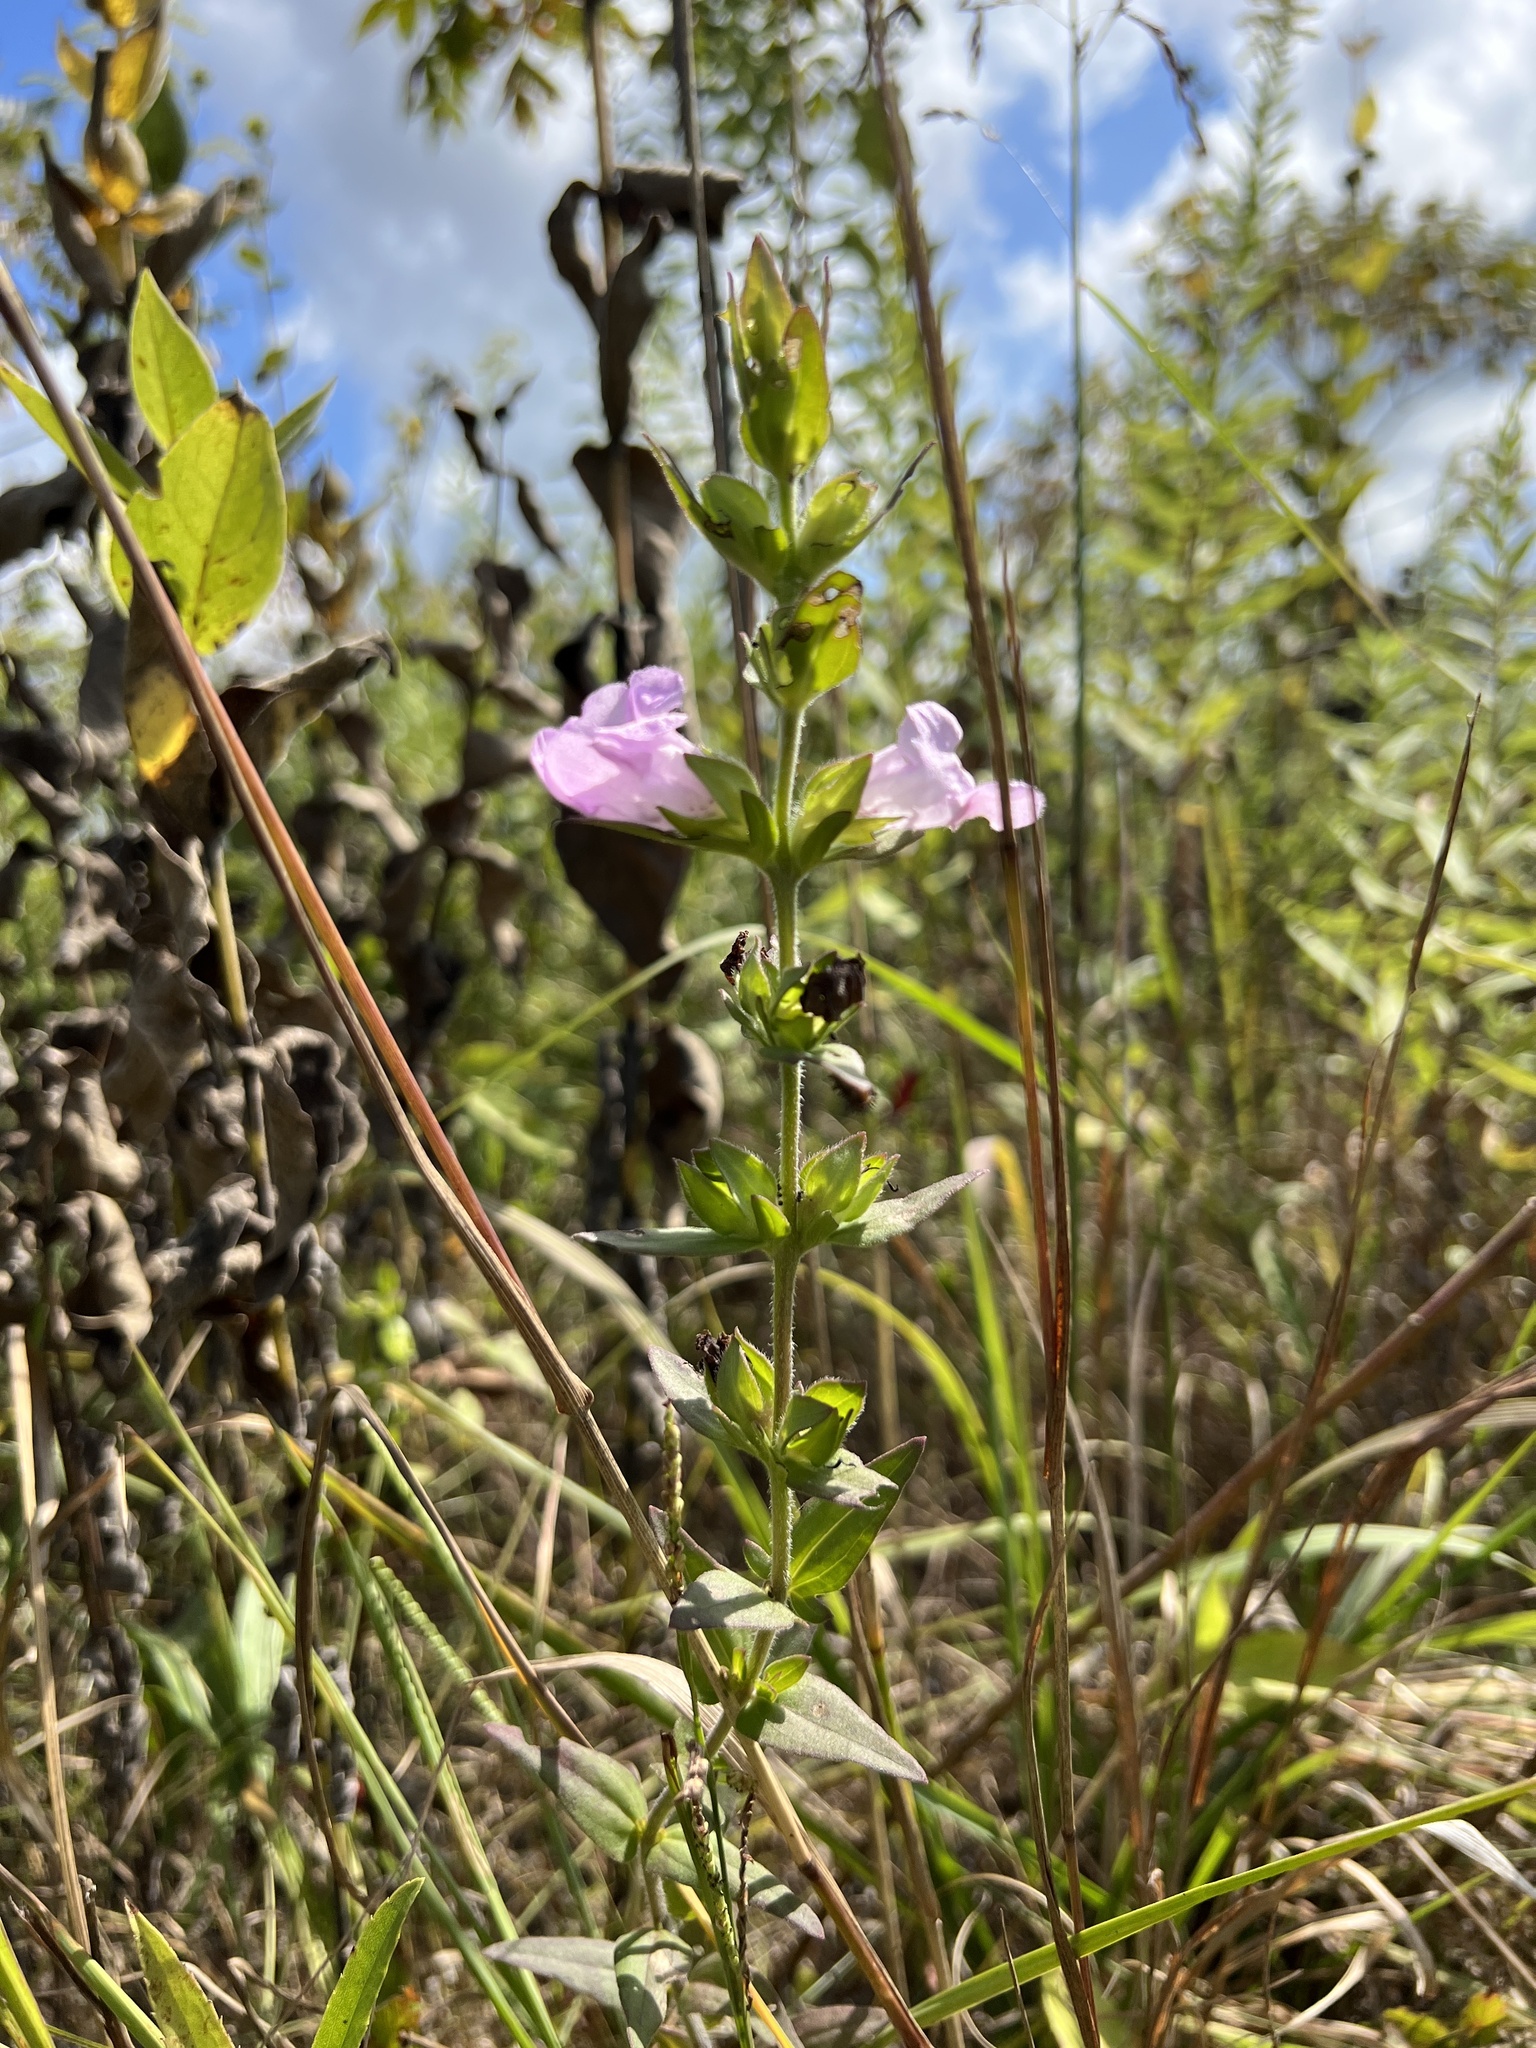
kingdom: Plantae
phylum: Tracheophyta
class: Magnoliopsida
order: Lamiales
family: Orobanchaceae
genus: Agalinis
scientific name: Agalinis auriculata
